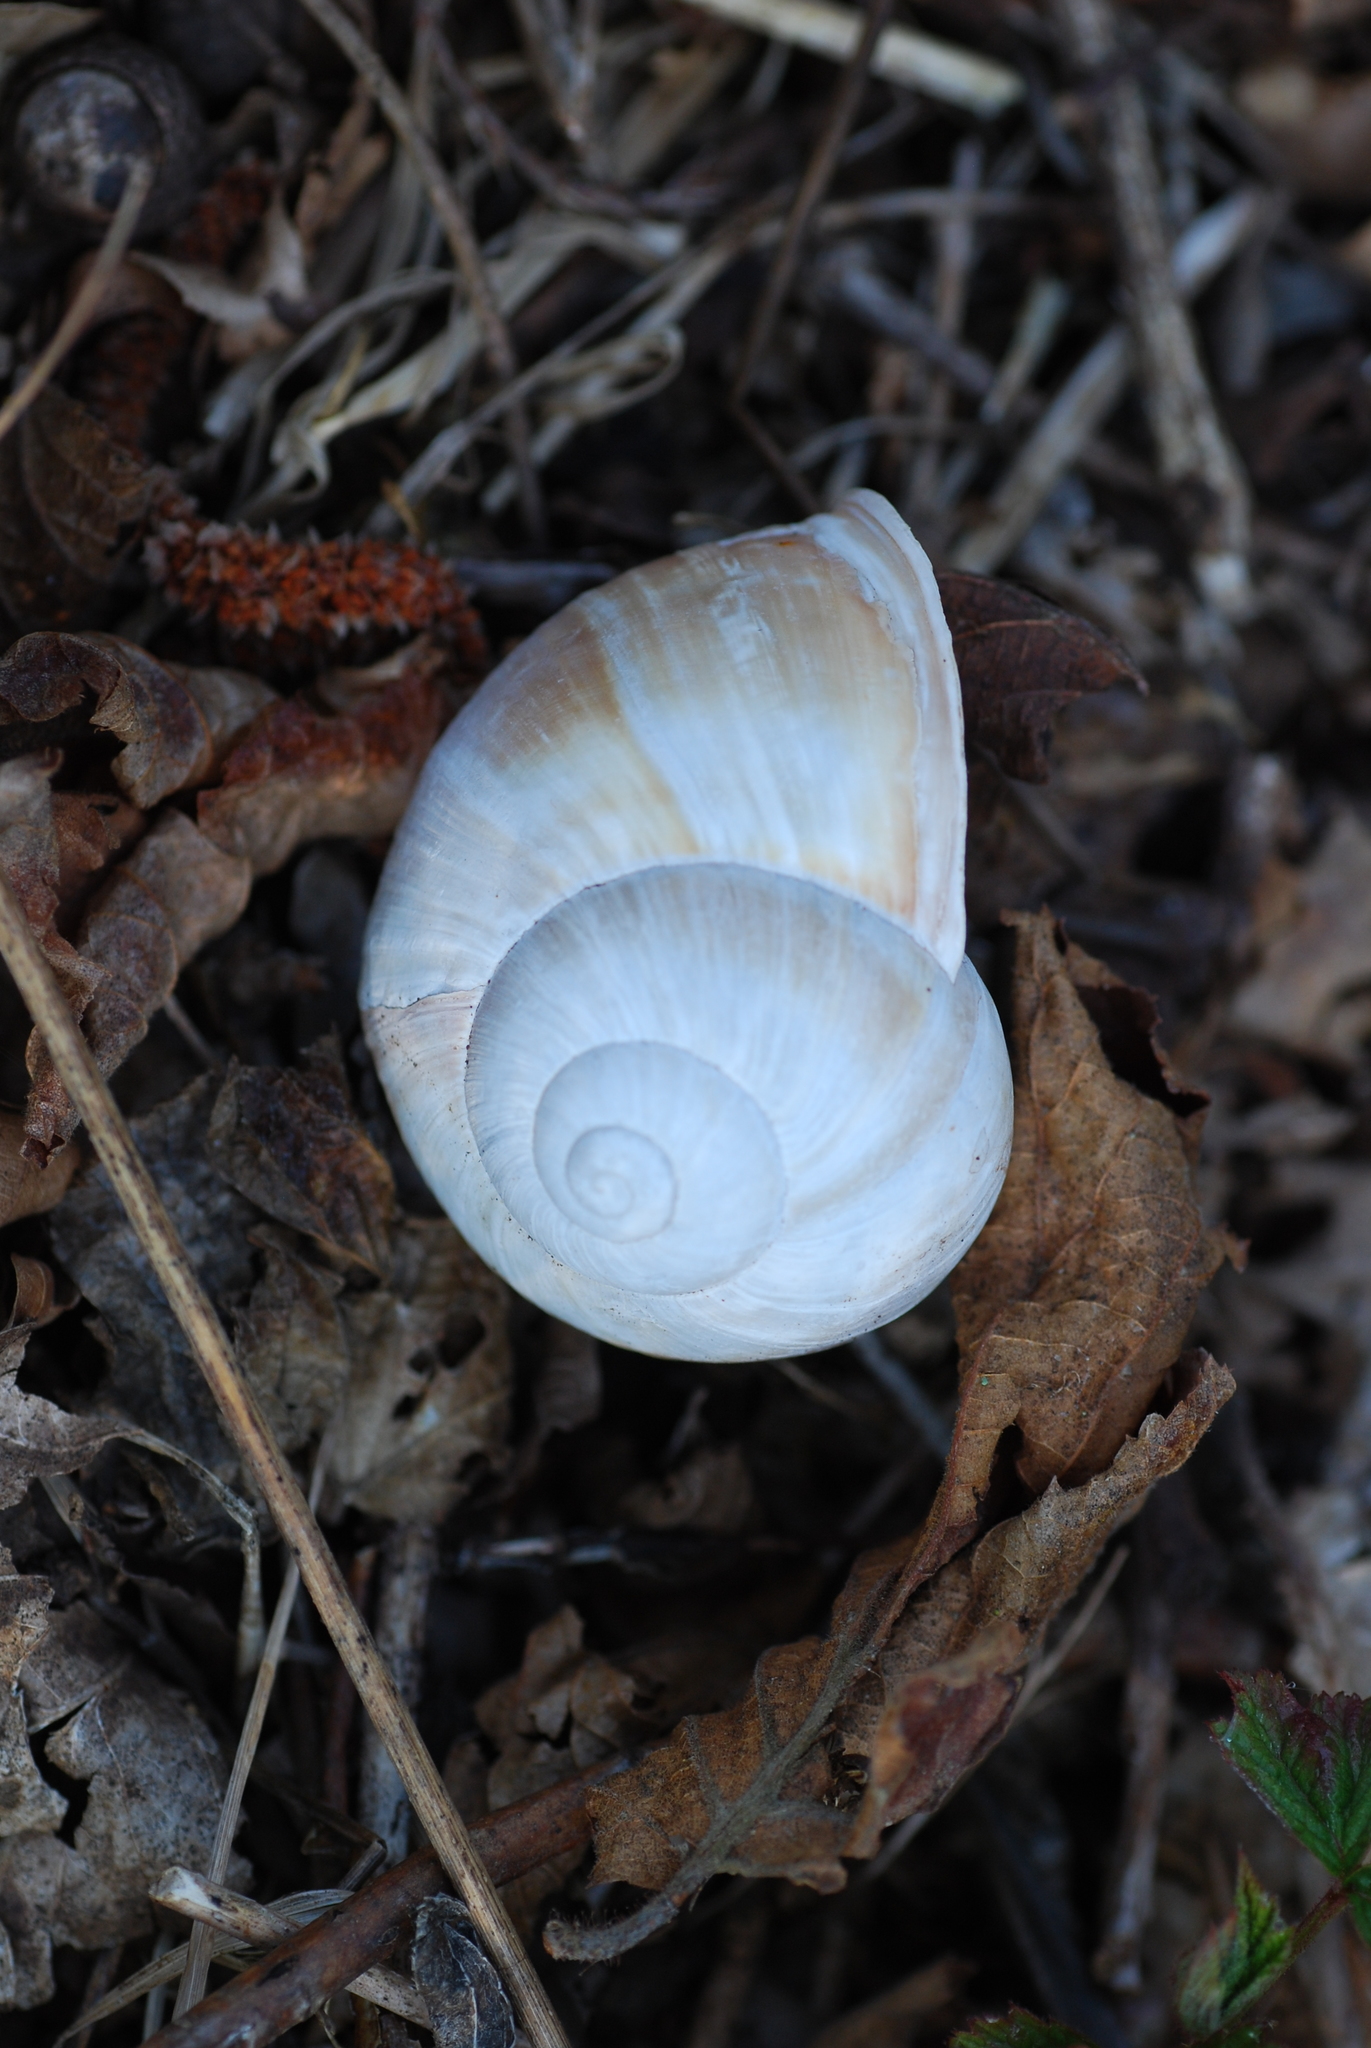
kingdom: Animalia
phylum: Mollusca
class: Gastropoda
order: Stylommatophora
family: Helicidae
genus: Helix
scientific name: Helix pomatia
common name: Roman snail
